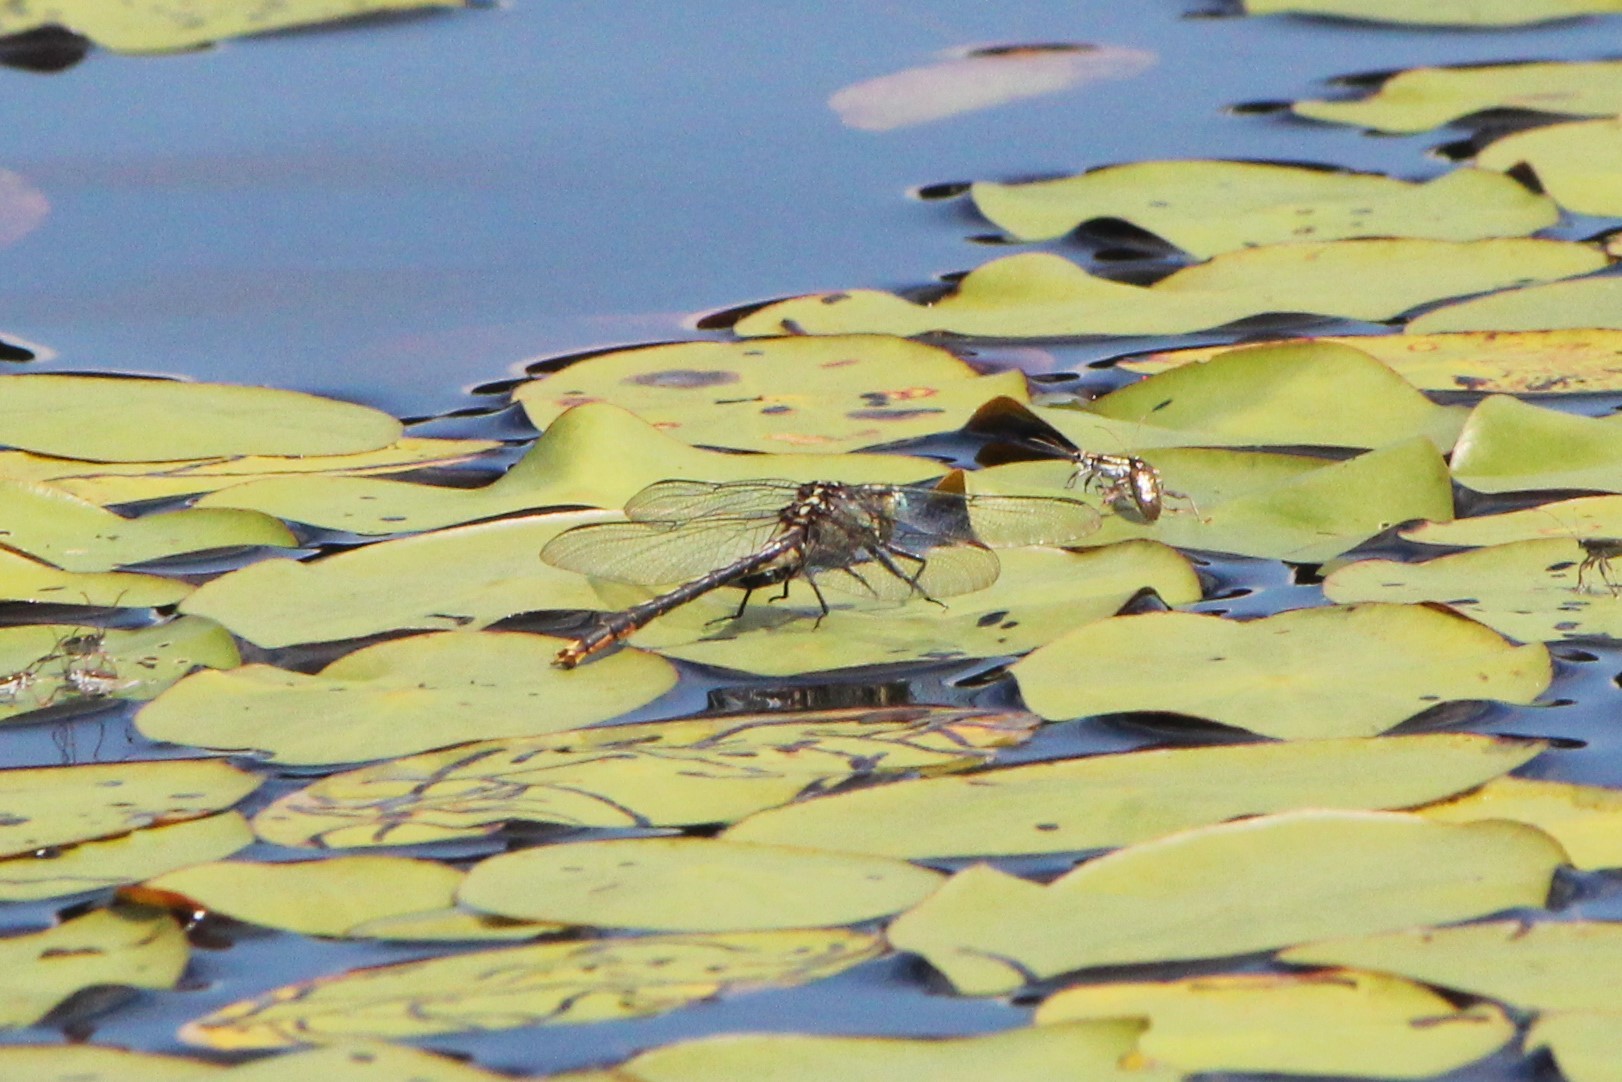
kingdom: Animalia
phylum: Arthropoda
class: Insecta
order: Odonata
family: Gomphidae
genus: Arigomphus
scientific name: Arigomphus furcifer
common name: Lilypad clubtail
